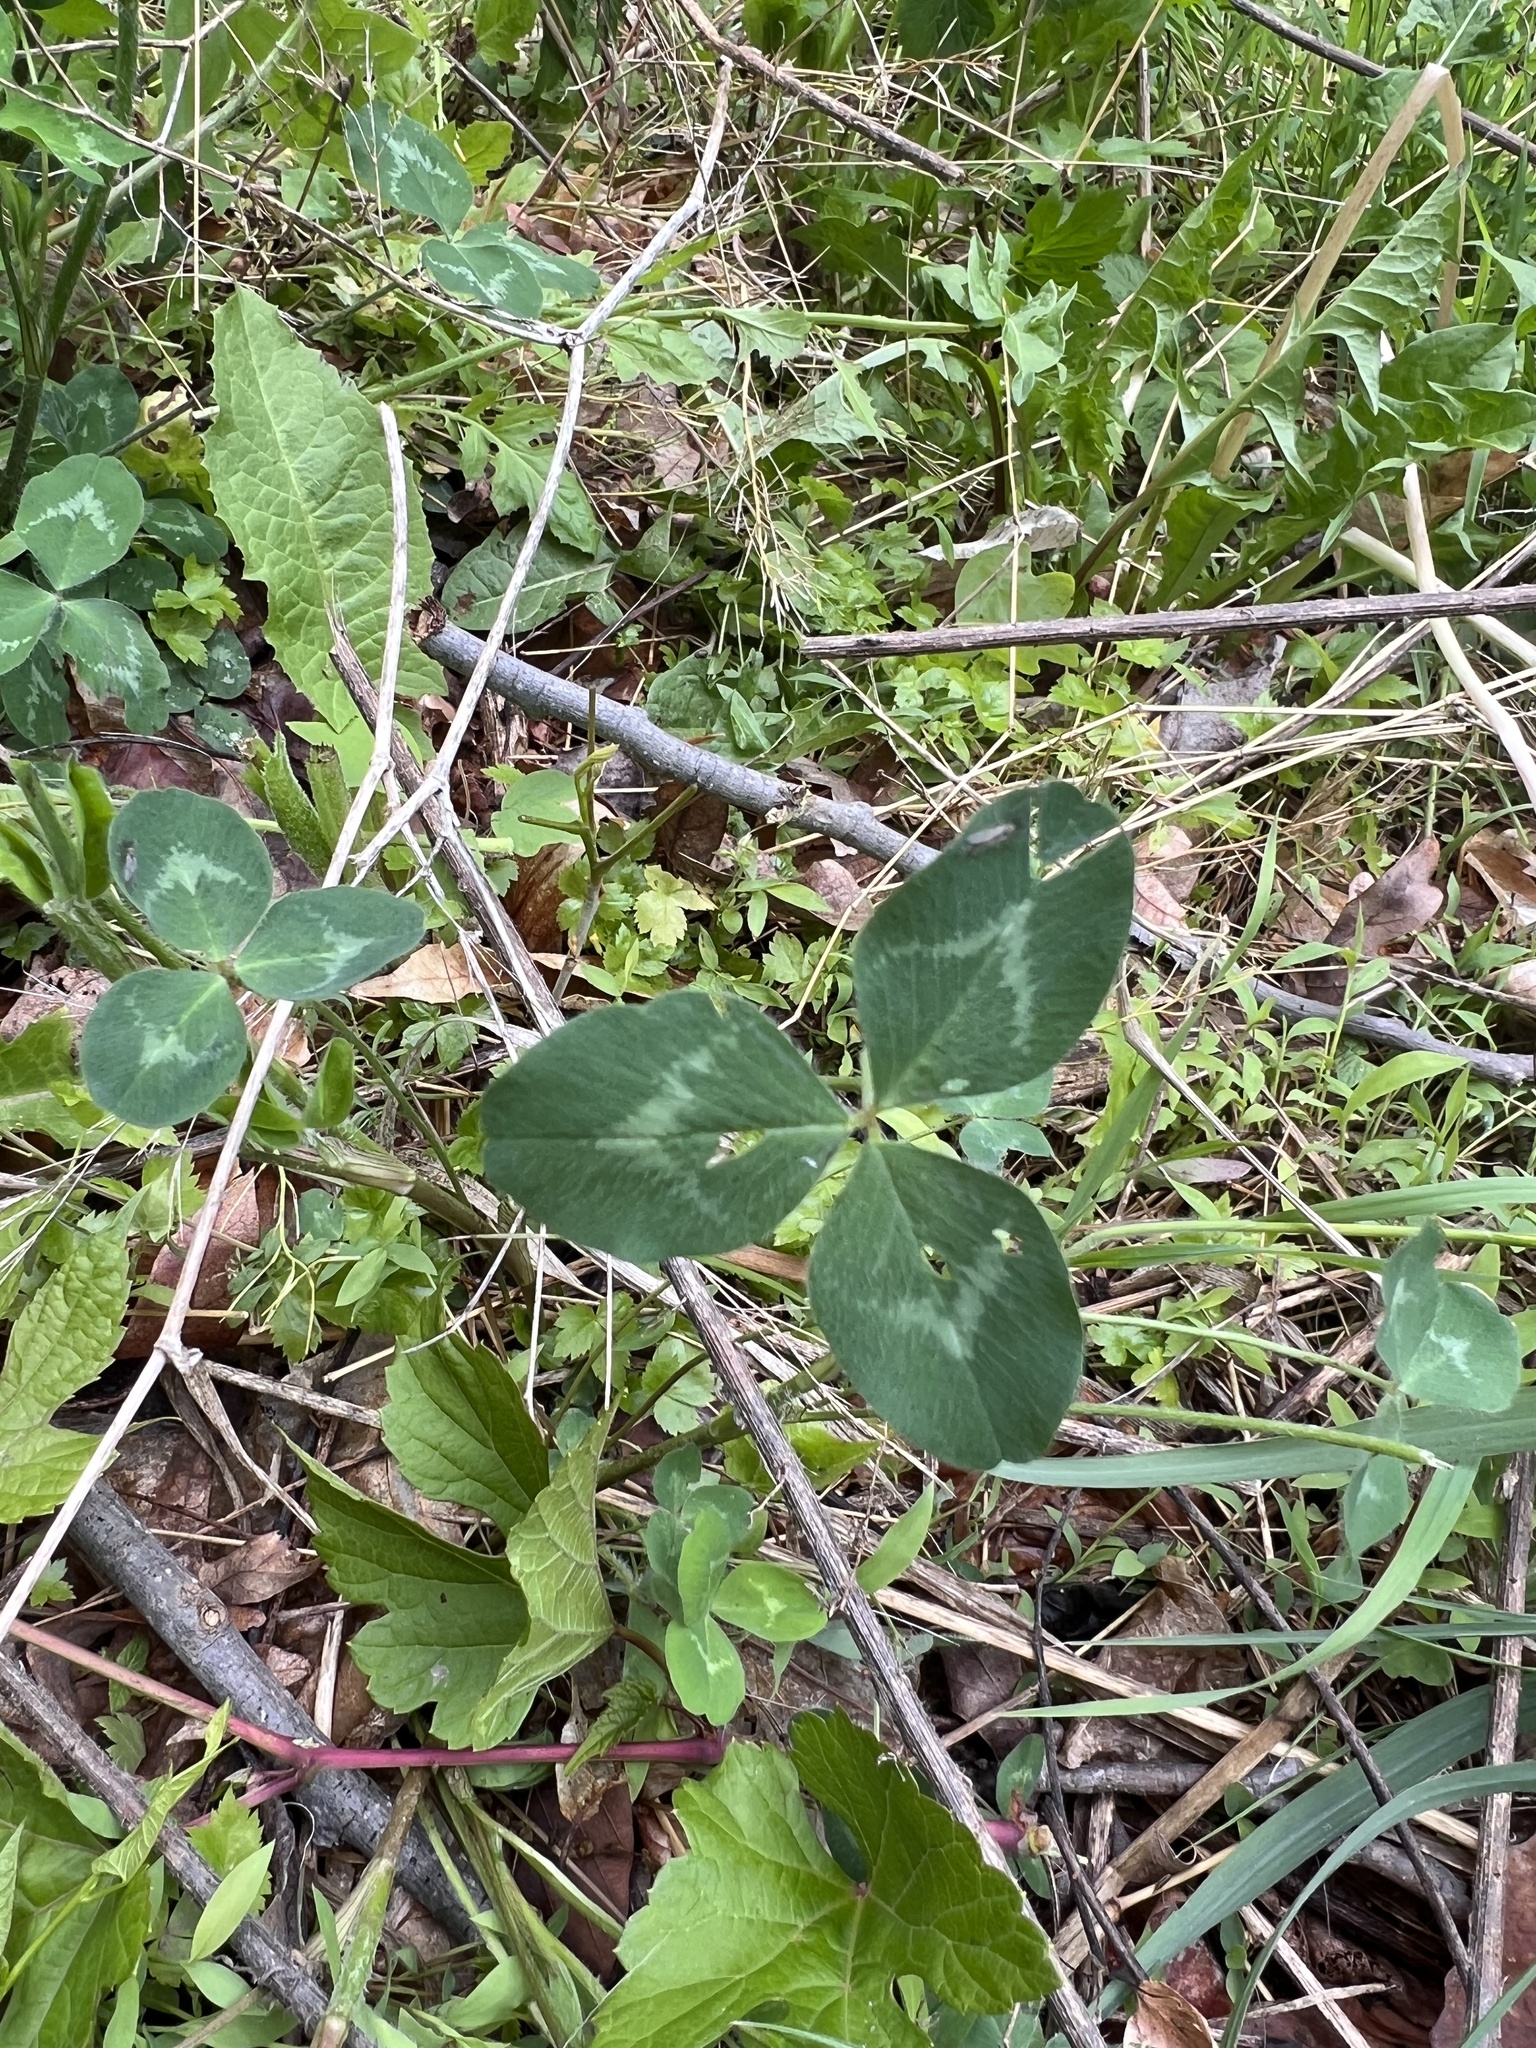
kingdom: Plantae
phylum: Tracheophyta
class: Magnoliopsida
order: Fabales
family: Fabaceae
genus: Trifolium
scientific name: Trifolium pratense
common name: Red clover
